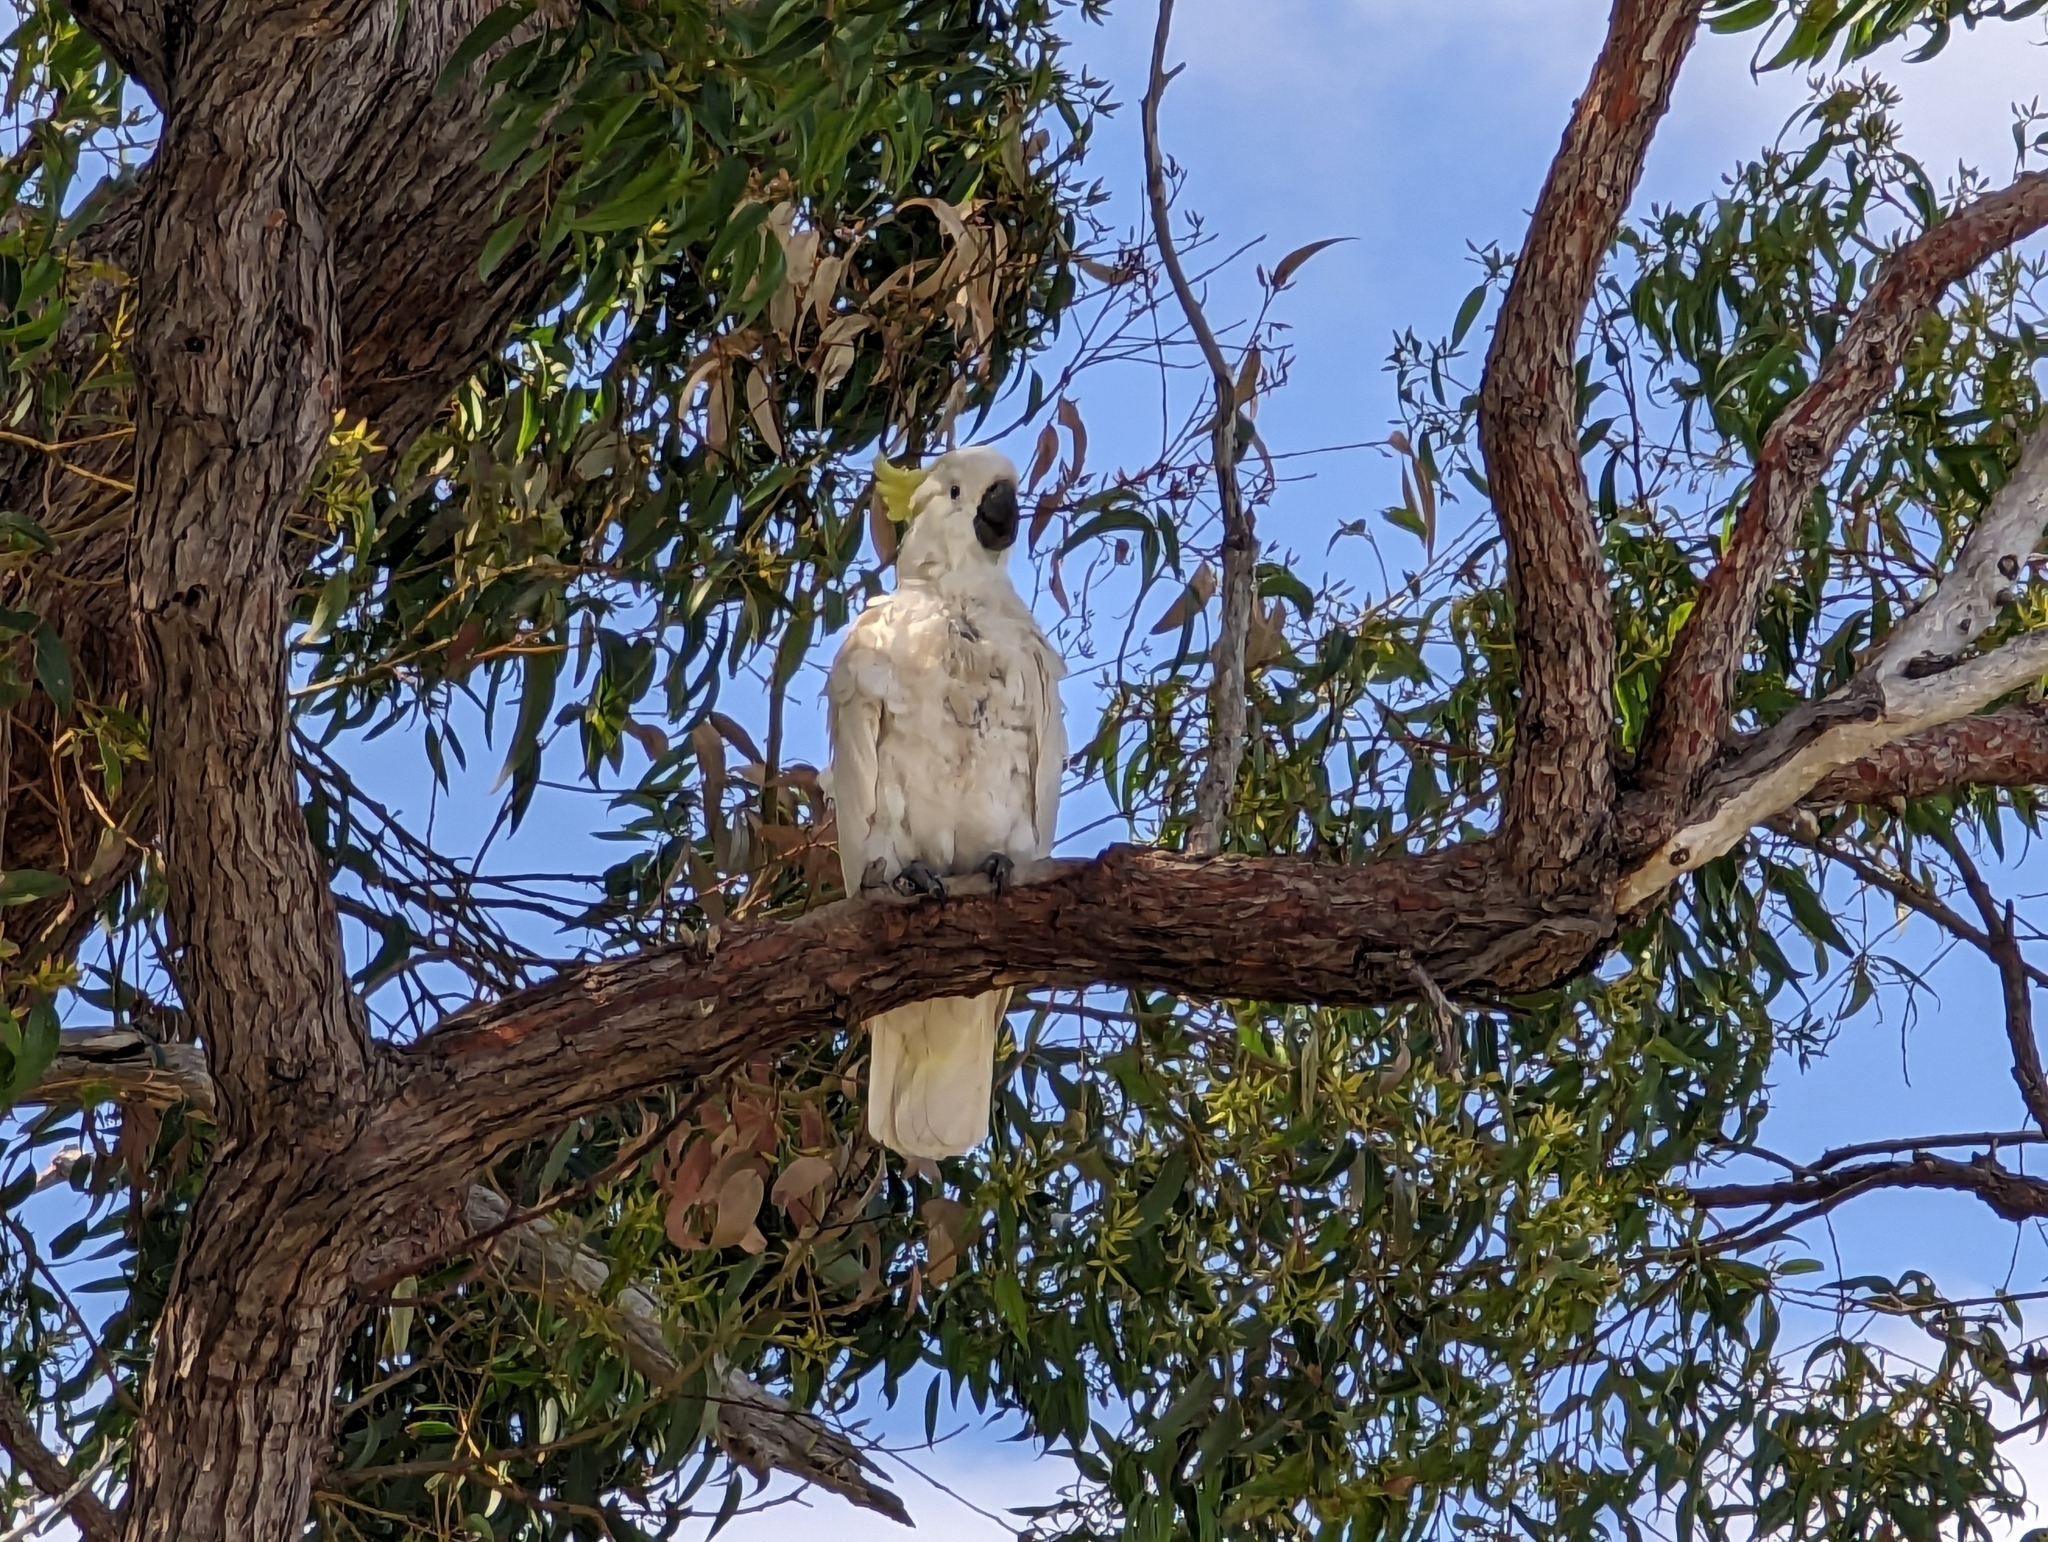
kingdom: Animalia
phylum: Chordata
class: Aves
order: Psittaciformes
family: Psittacidae
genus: Cacatua
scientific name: Cacatua galerita
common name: Sulphur-crested cockatoo
